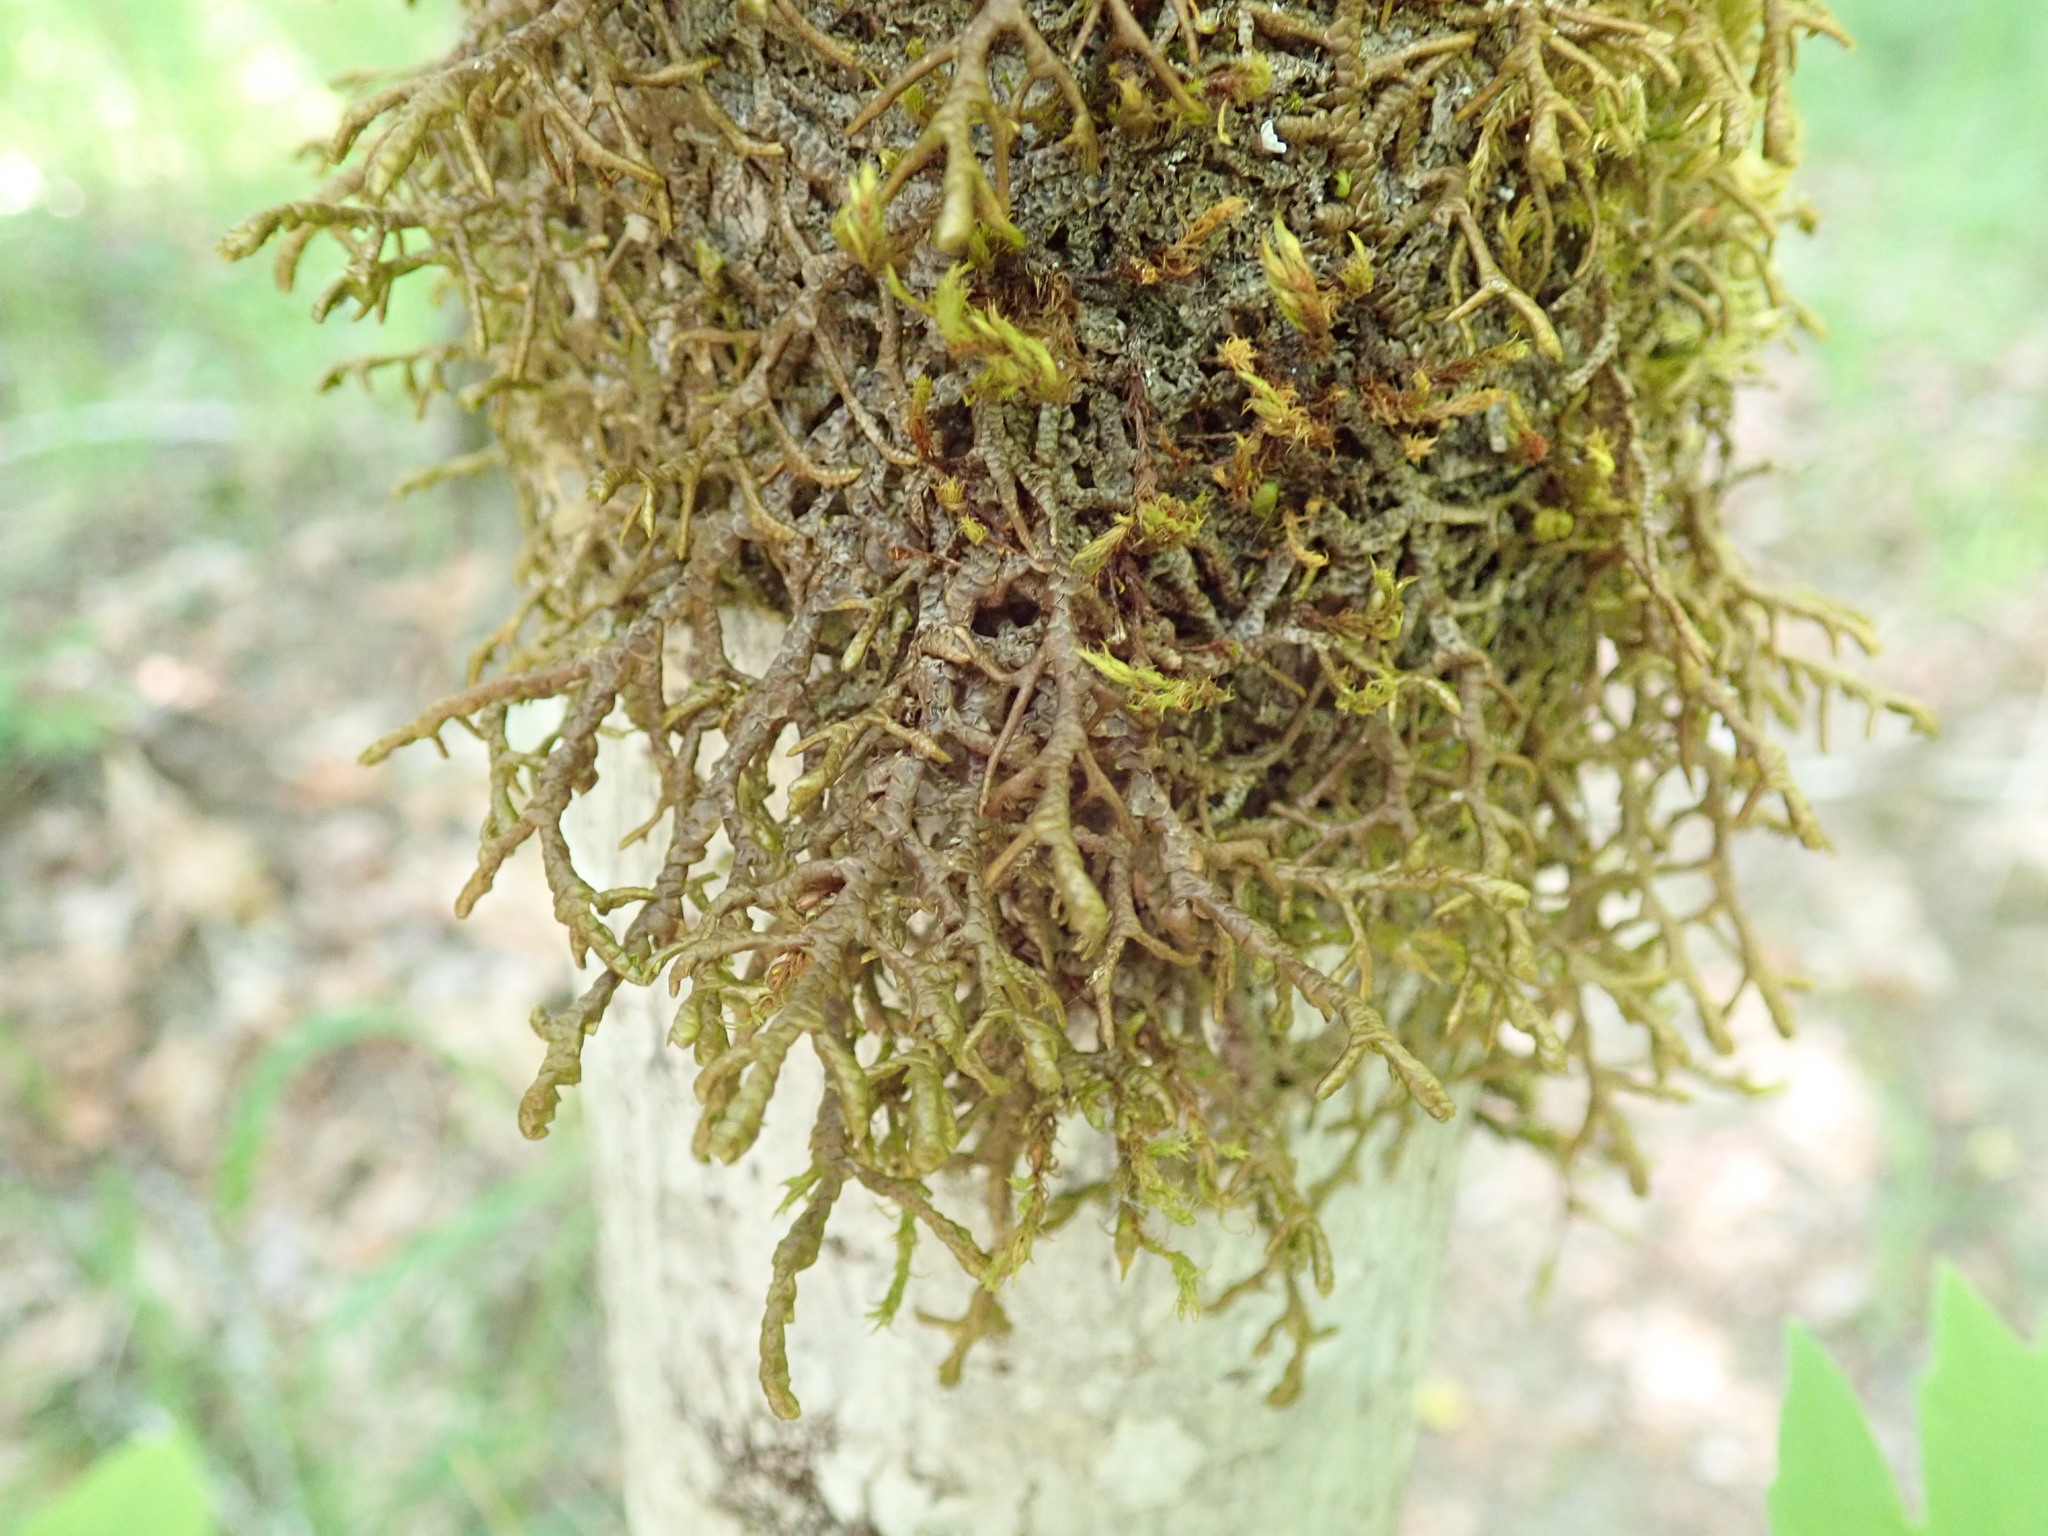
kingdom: Plantae
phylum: Marchantiophyta
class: Jungermanniopsida
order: Porellales
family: Porellaceae
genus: Porella
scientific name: Porella navicularis
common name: Tree ruffle liverwort
